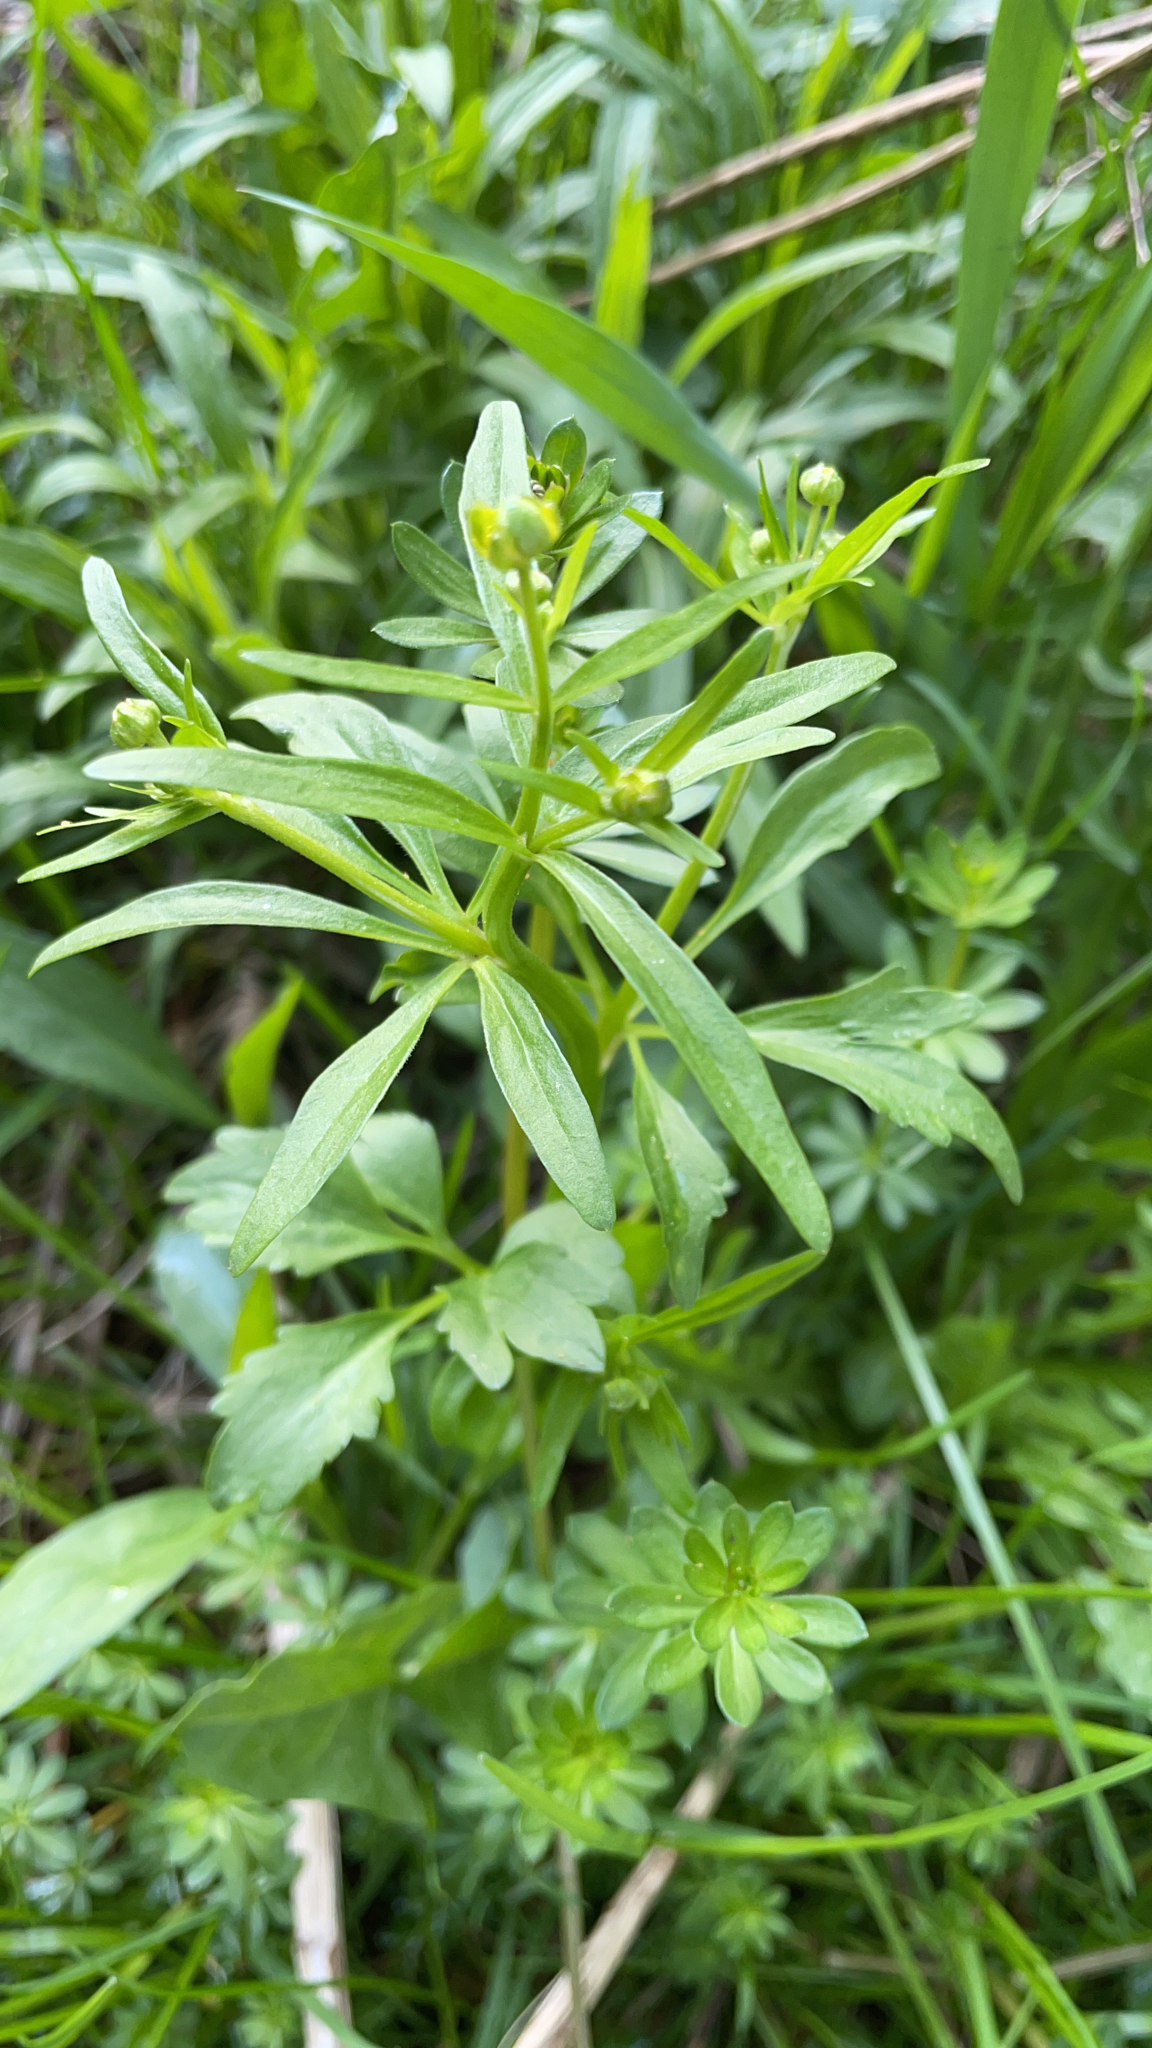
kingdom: Plantae
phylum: Tracheophyta
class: Magnoliopsida
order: Ranunculales
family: Ranunculaceae
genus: Ranunculus
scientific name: Ranunculus abortivus
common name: Early wood buttercup
